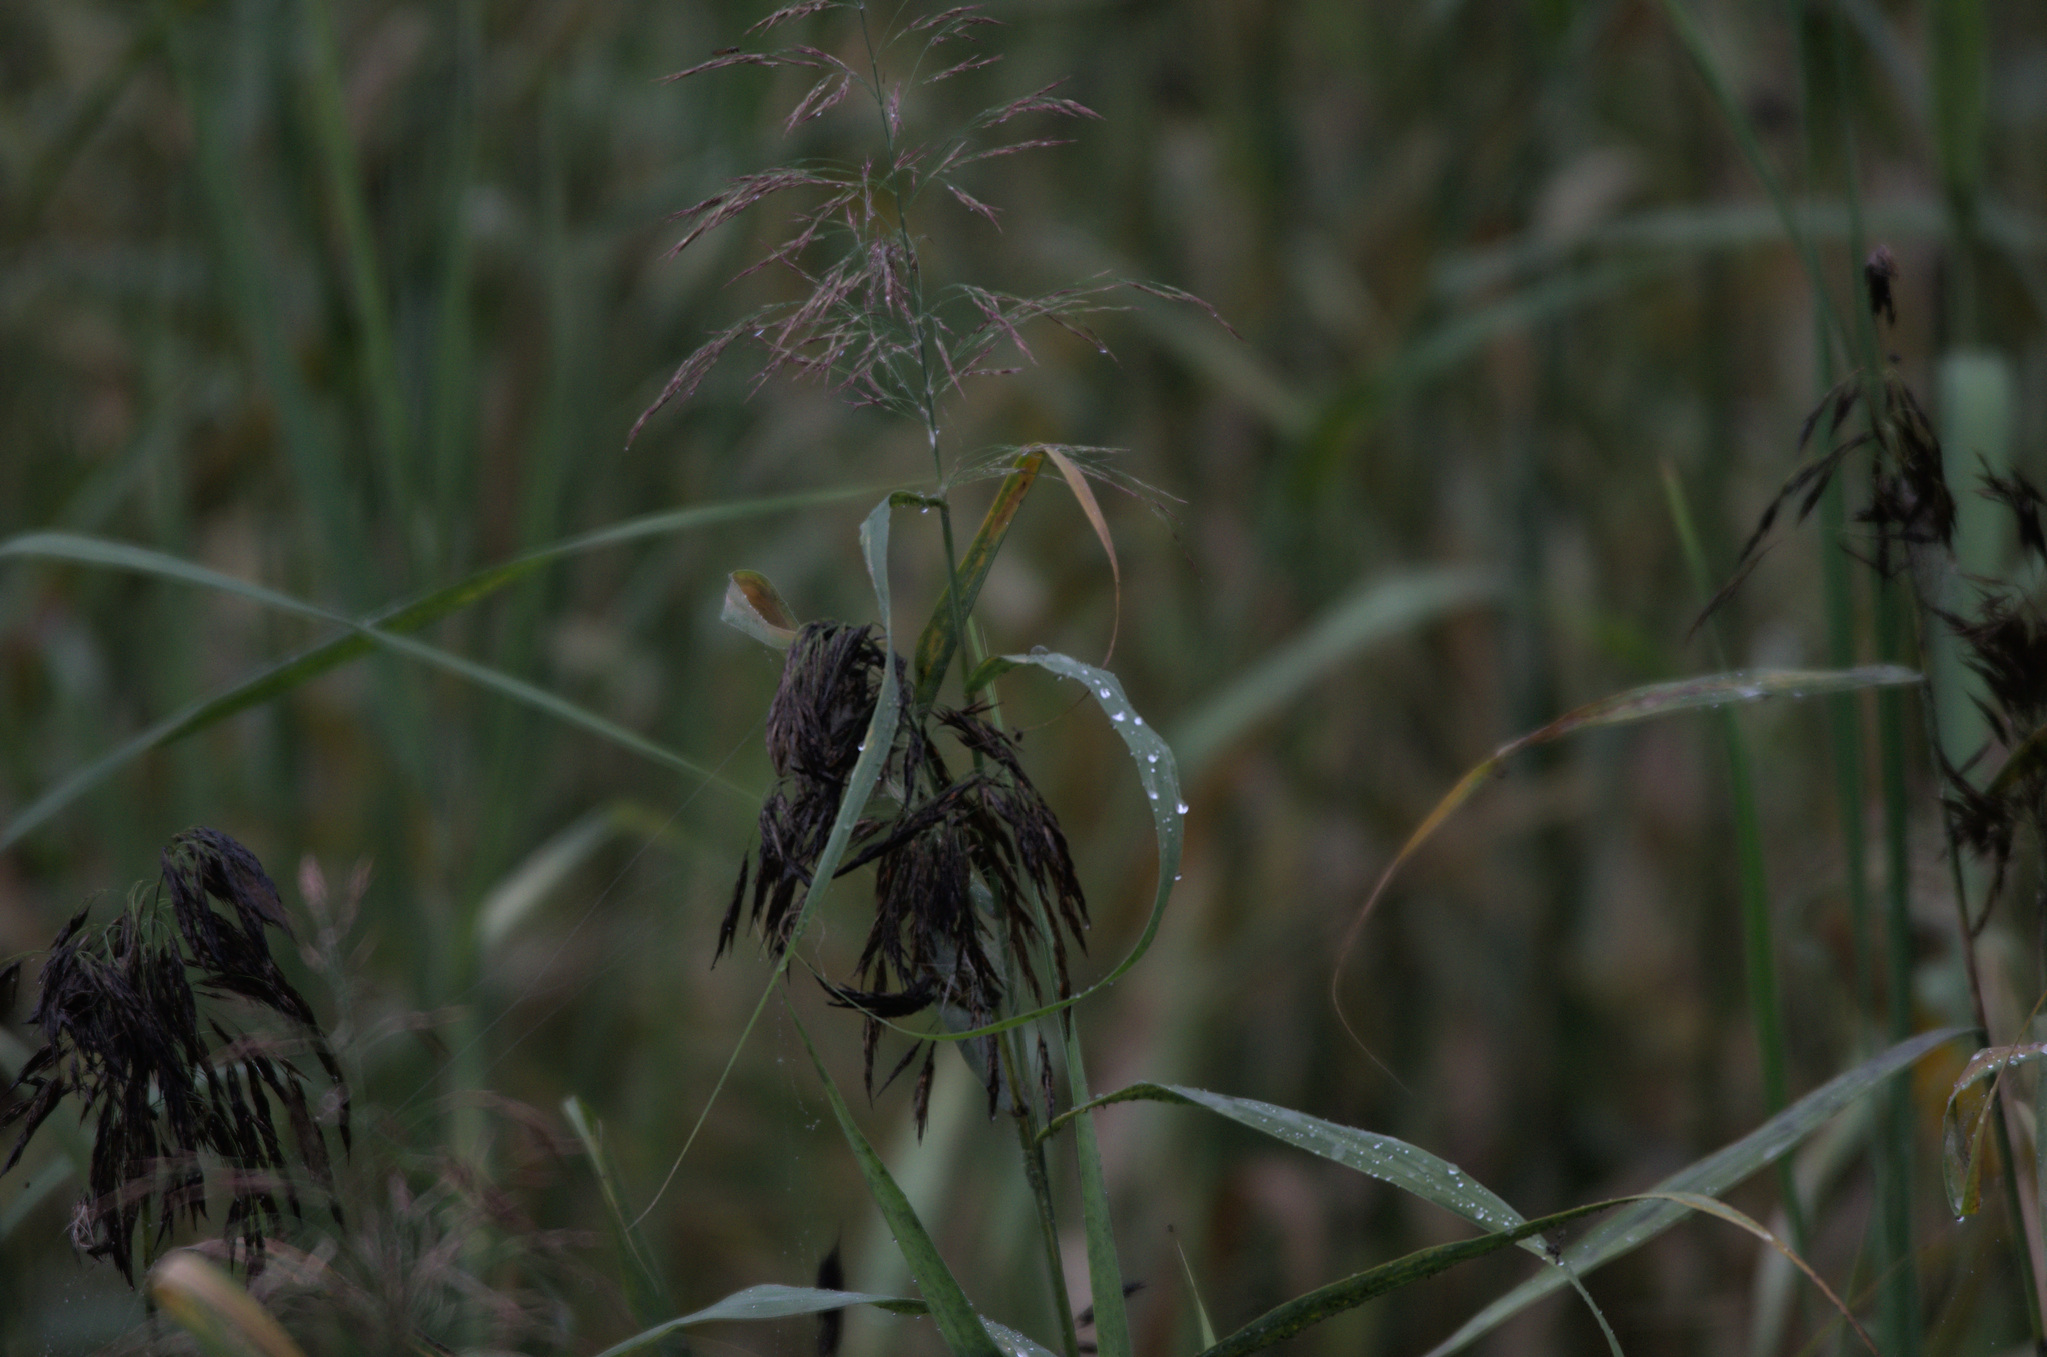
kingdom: Plantae
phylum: Tracheophyta
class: Liliopsida
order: Poales
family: Poaceae
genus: Phragmites
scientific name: Phragmites australis
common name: Common reed
